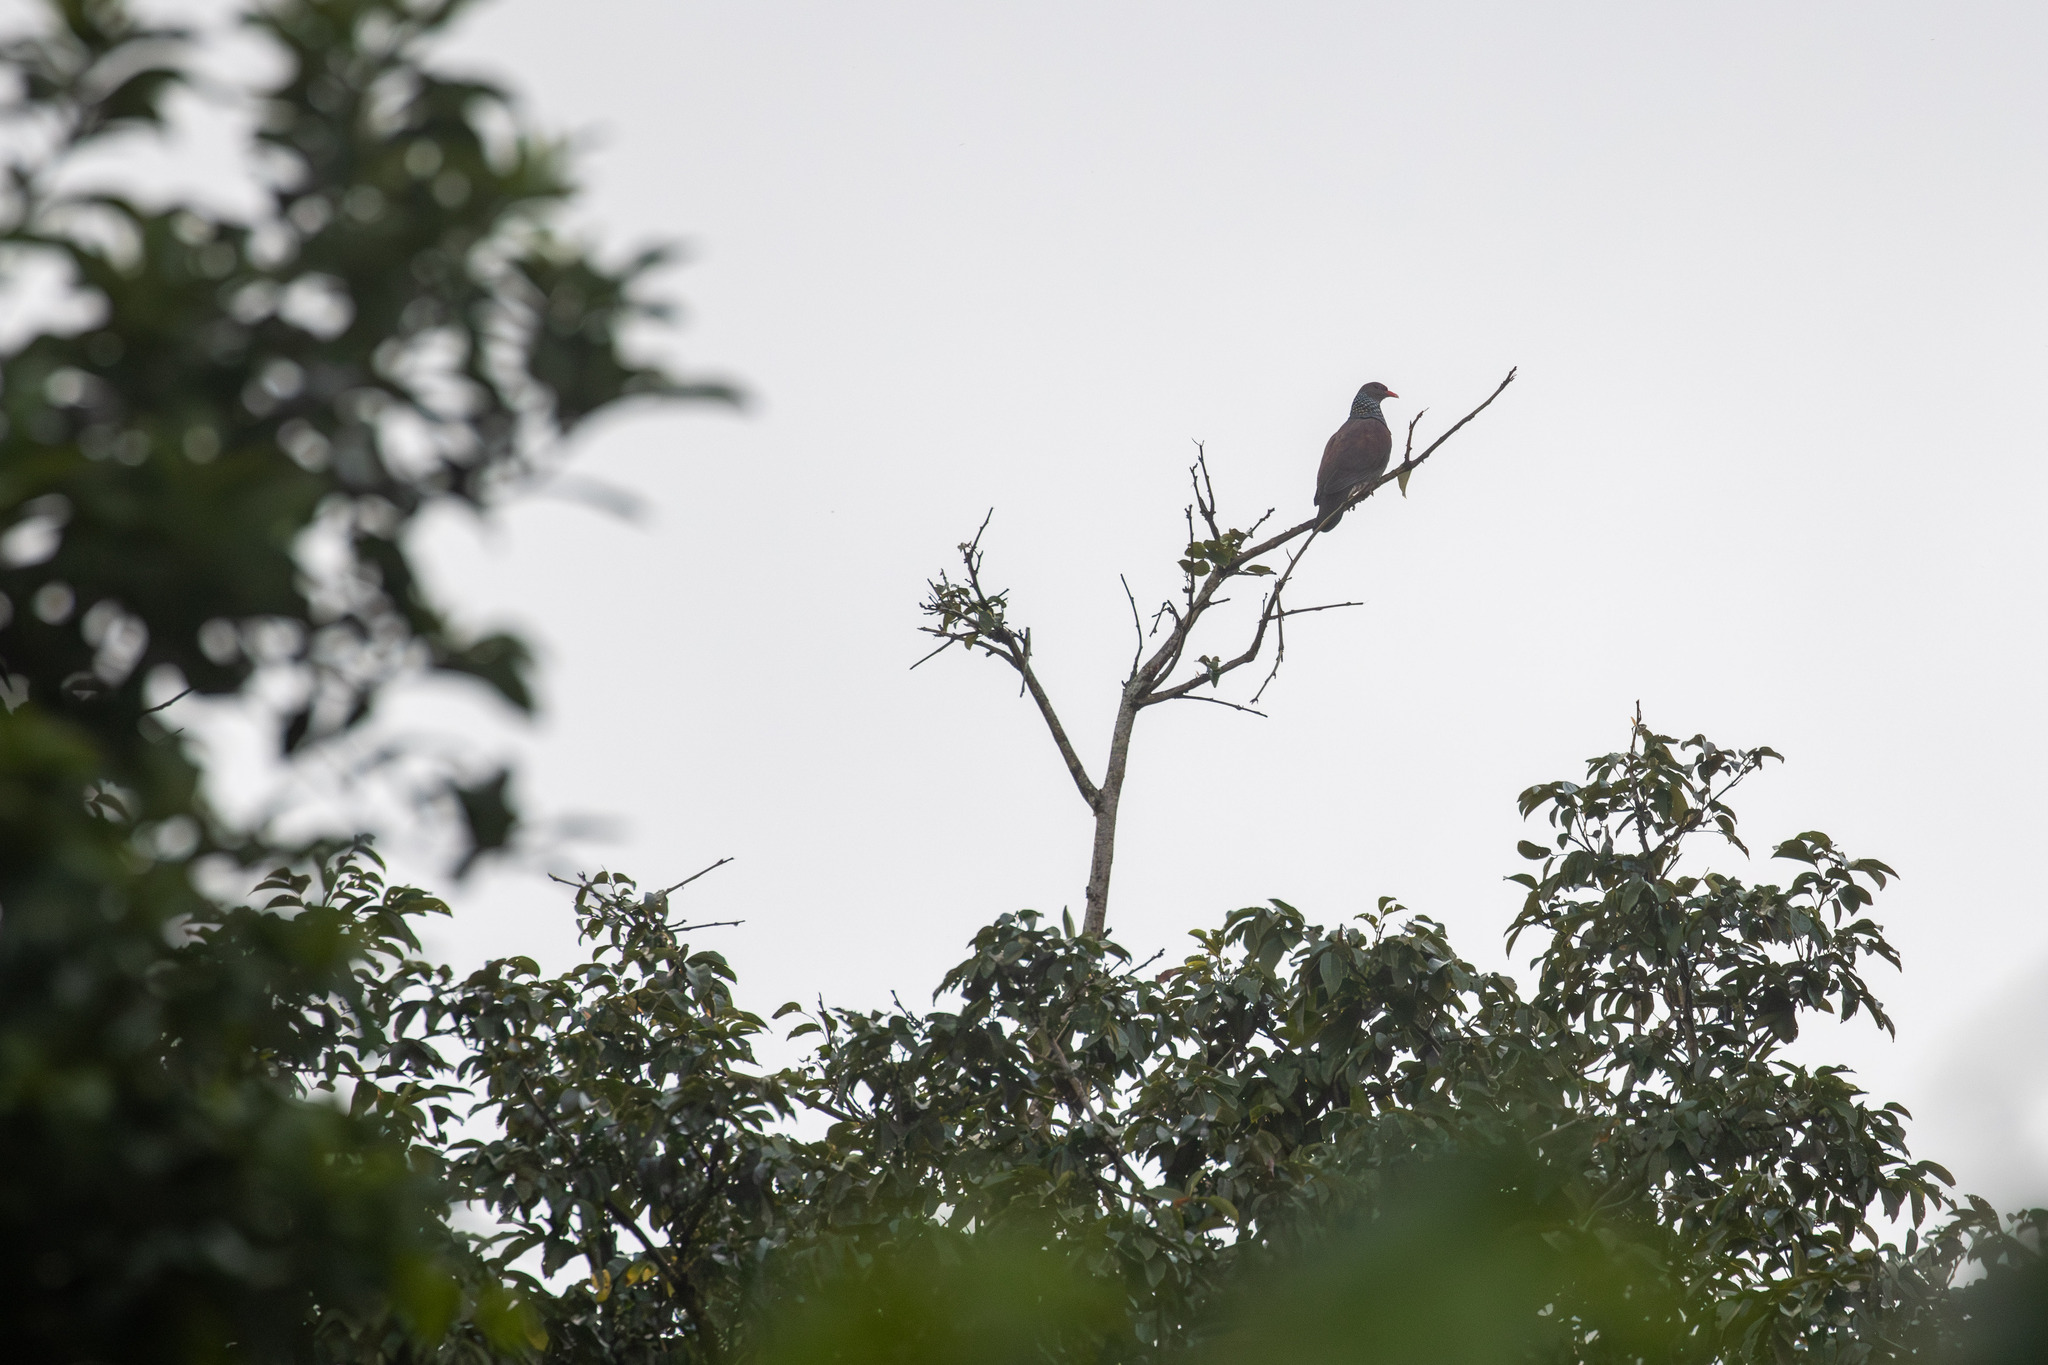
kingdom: Animalia
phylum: Chordata
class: Aves
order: Columbiformes
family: Columbidae
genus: Patagioenas
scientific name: Patagioenas speciosa
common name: Scaled pigeon
